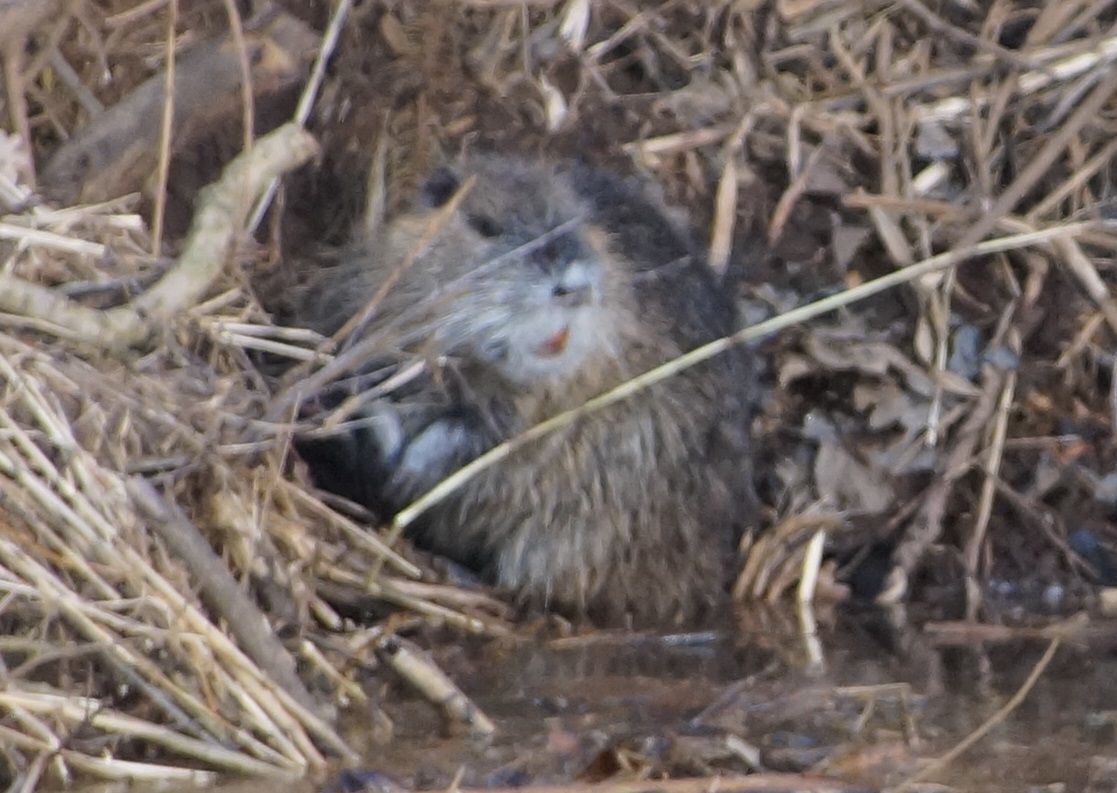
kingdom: Animalia
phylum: Chordata
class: Mammalia
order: Rodentia
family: Myocastoridae
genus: Myocastor
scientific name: Myocastor coypus
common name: Coypu
